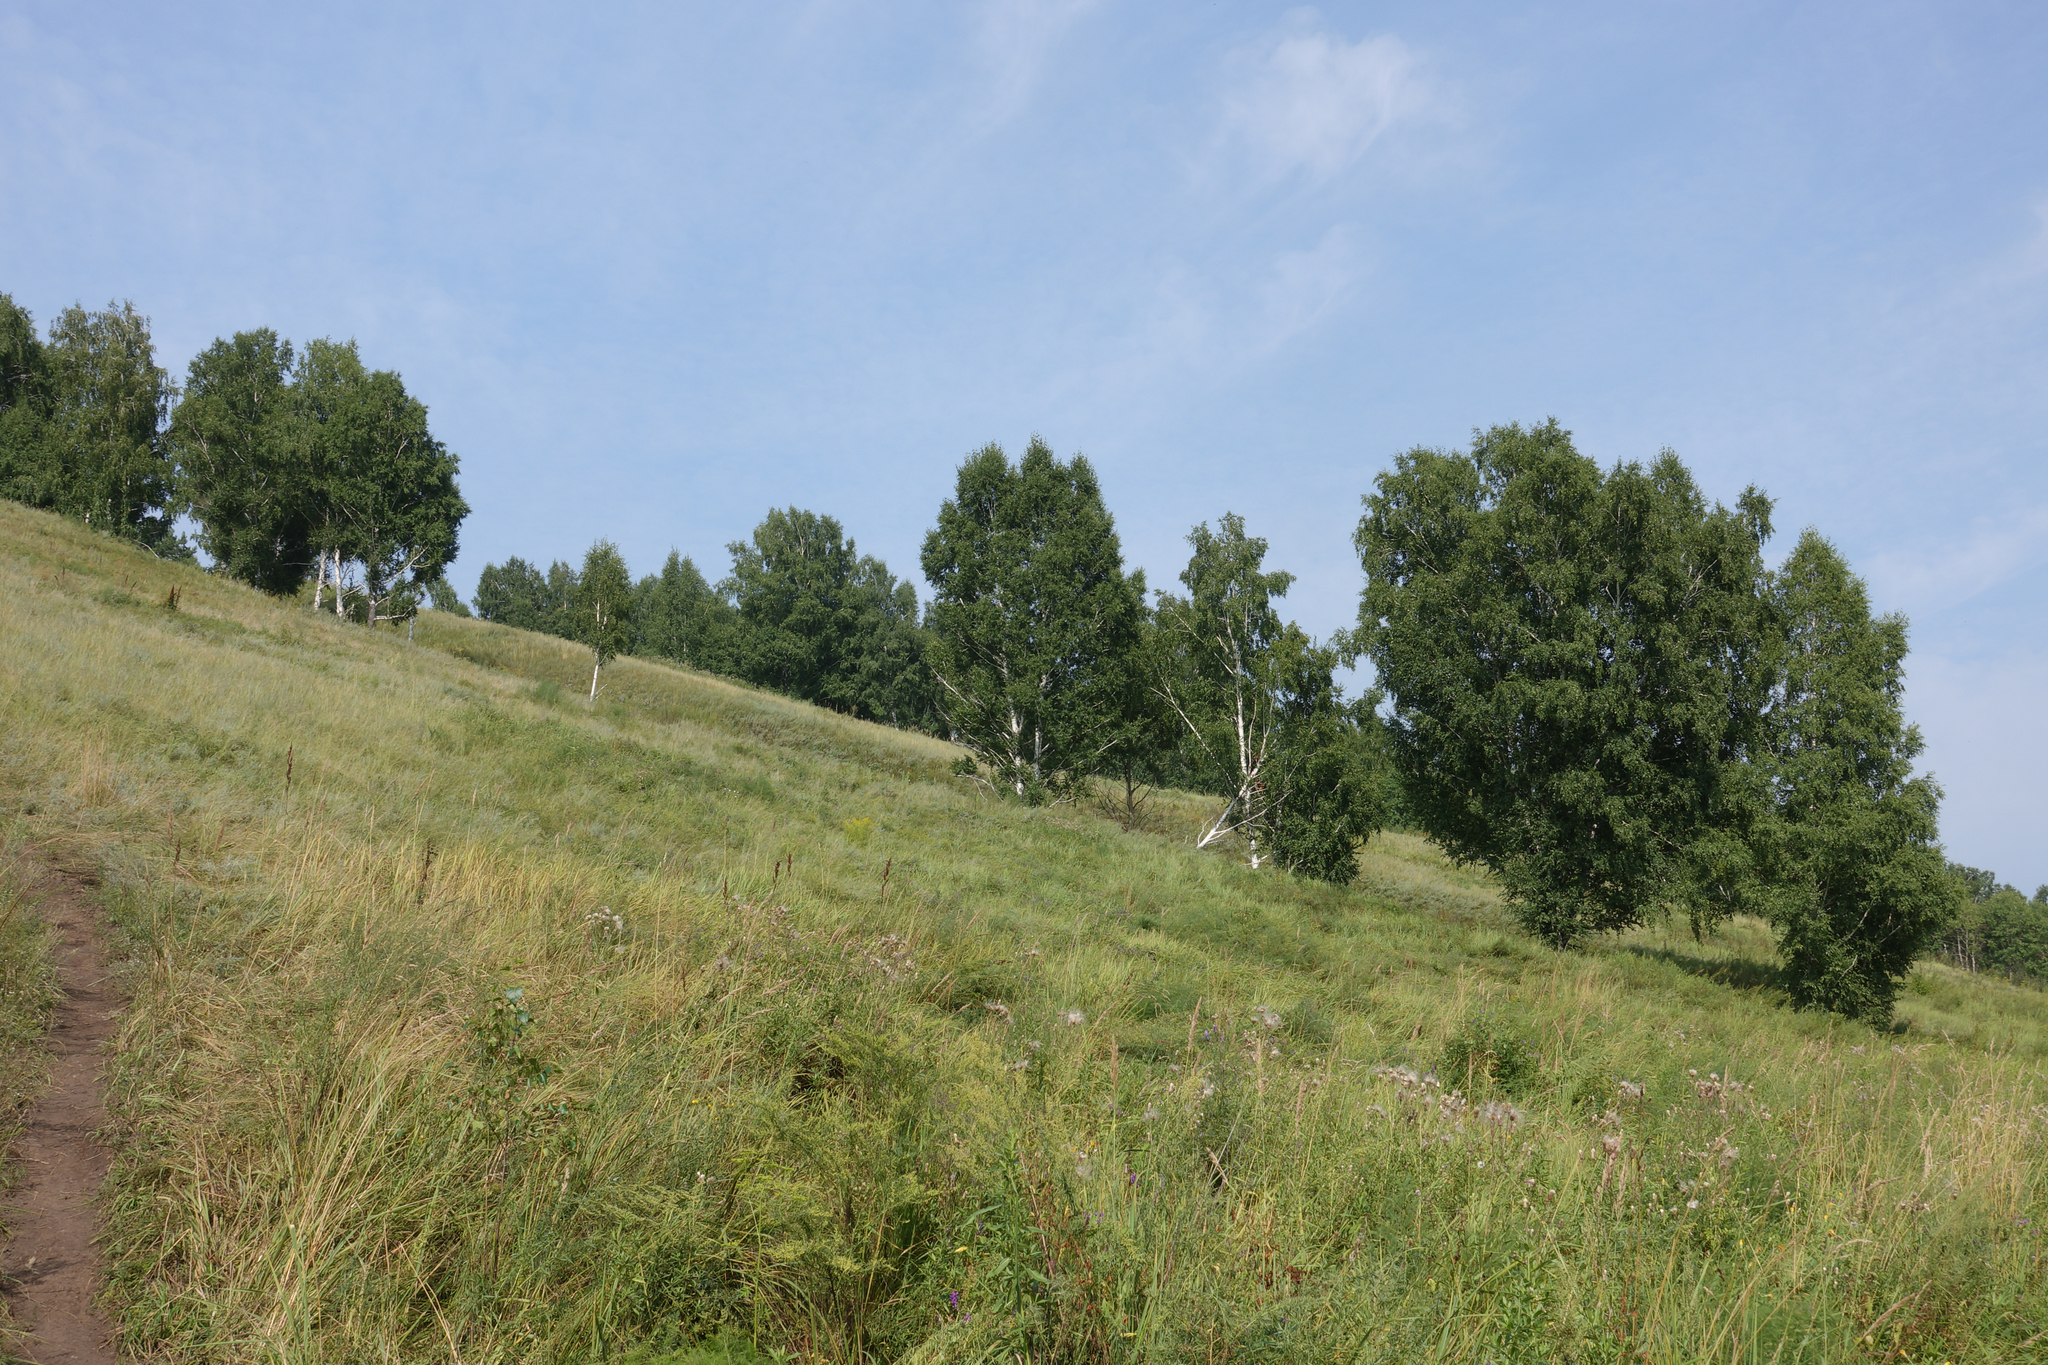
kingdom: Plantae
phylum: Tracheophyta
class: Magnoliopsida
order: Fagales
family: Betulaceae
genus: Betula
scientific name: Betula pendula
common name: Silver birch
